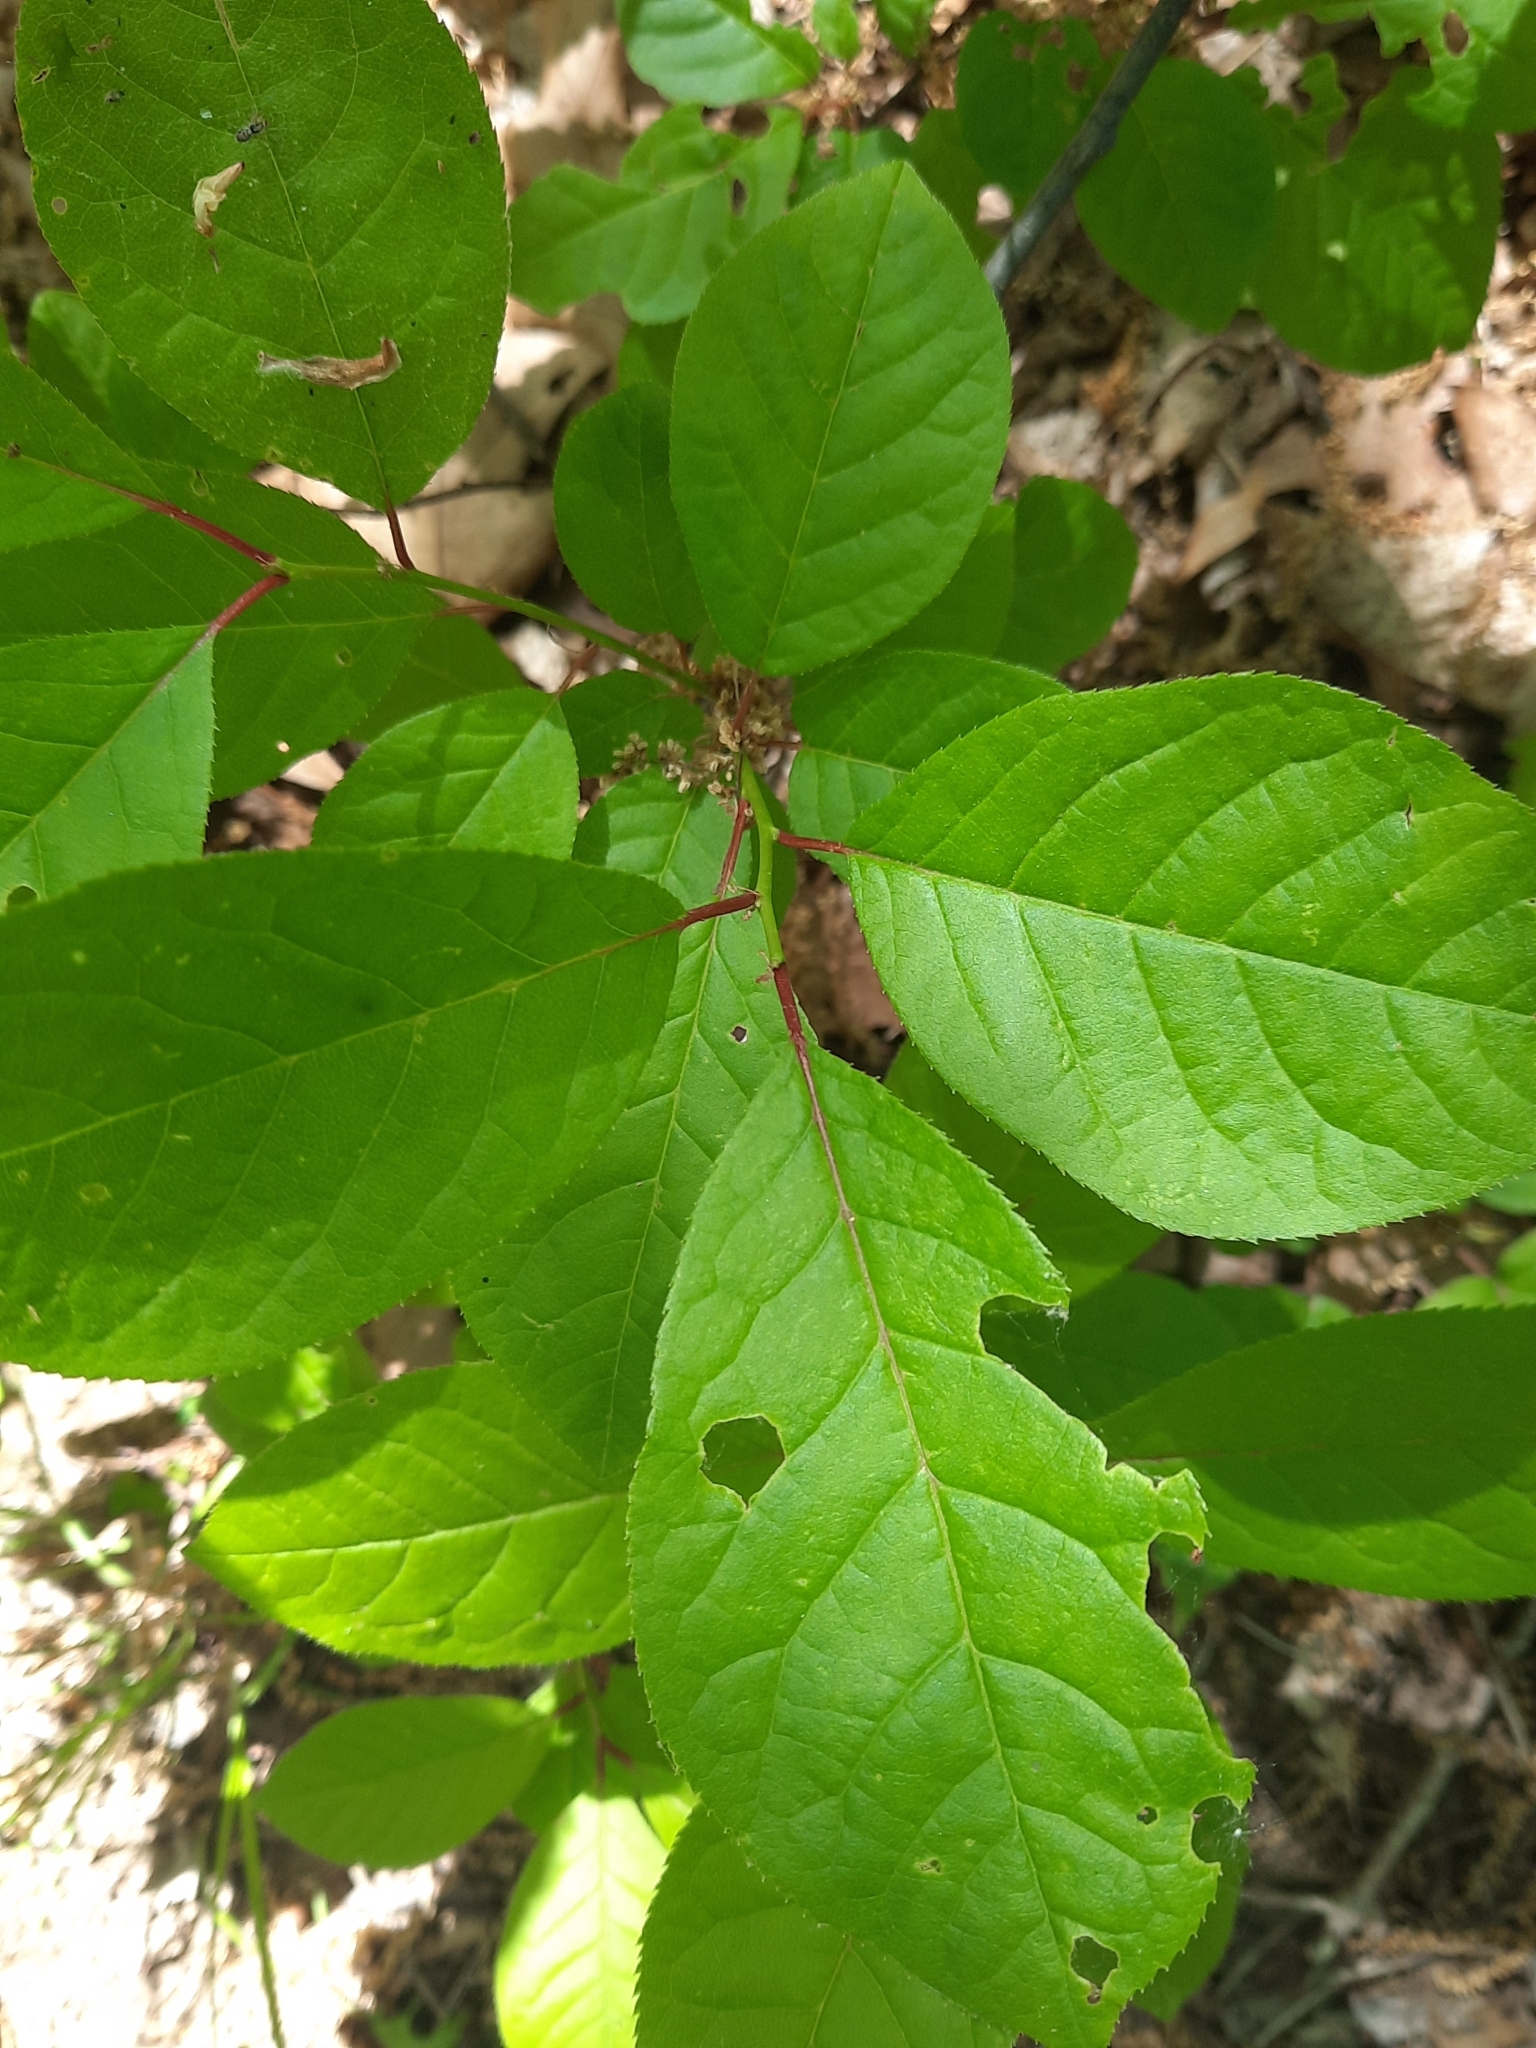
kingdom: Plantae
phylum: Tracheophyta
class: Magnoliopsida
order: Rosales
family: Rosaceae
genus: Prunus
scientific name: Prunus virginiana
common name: Chokecherry
